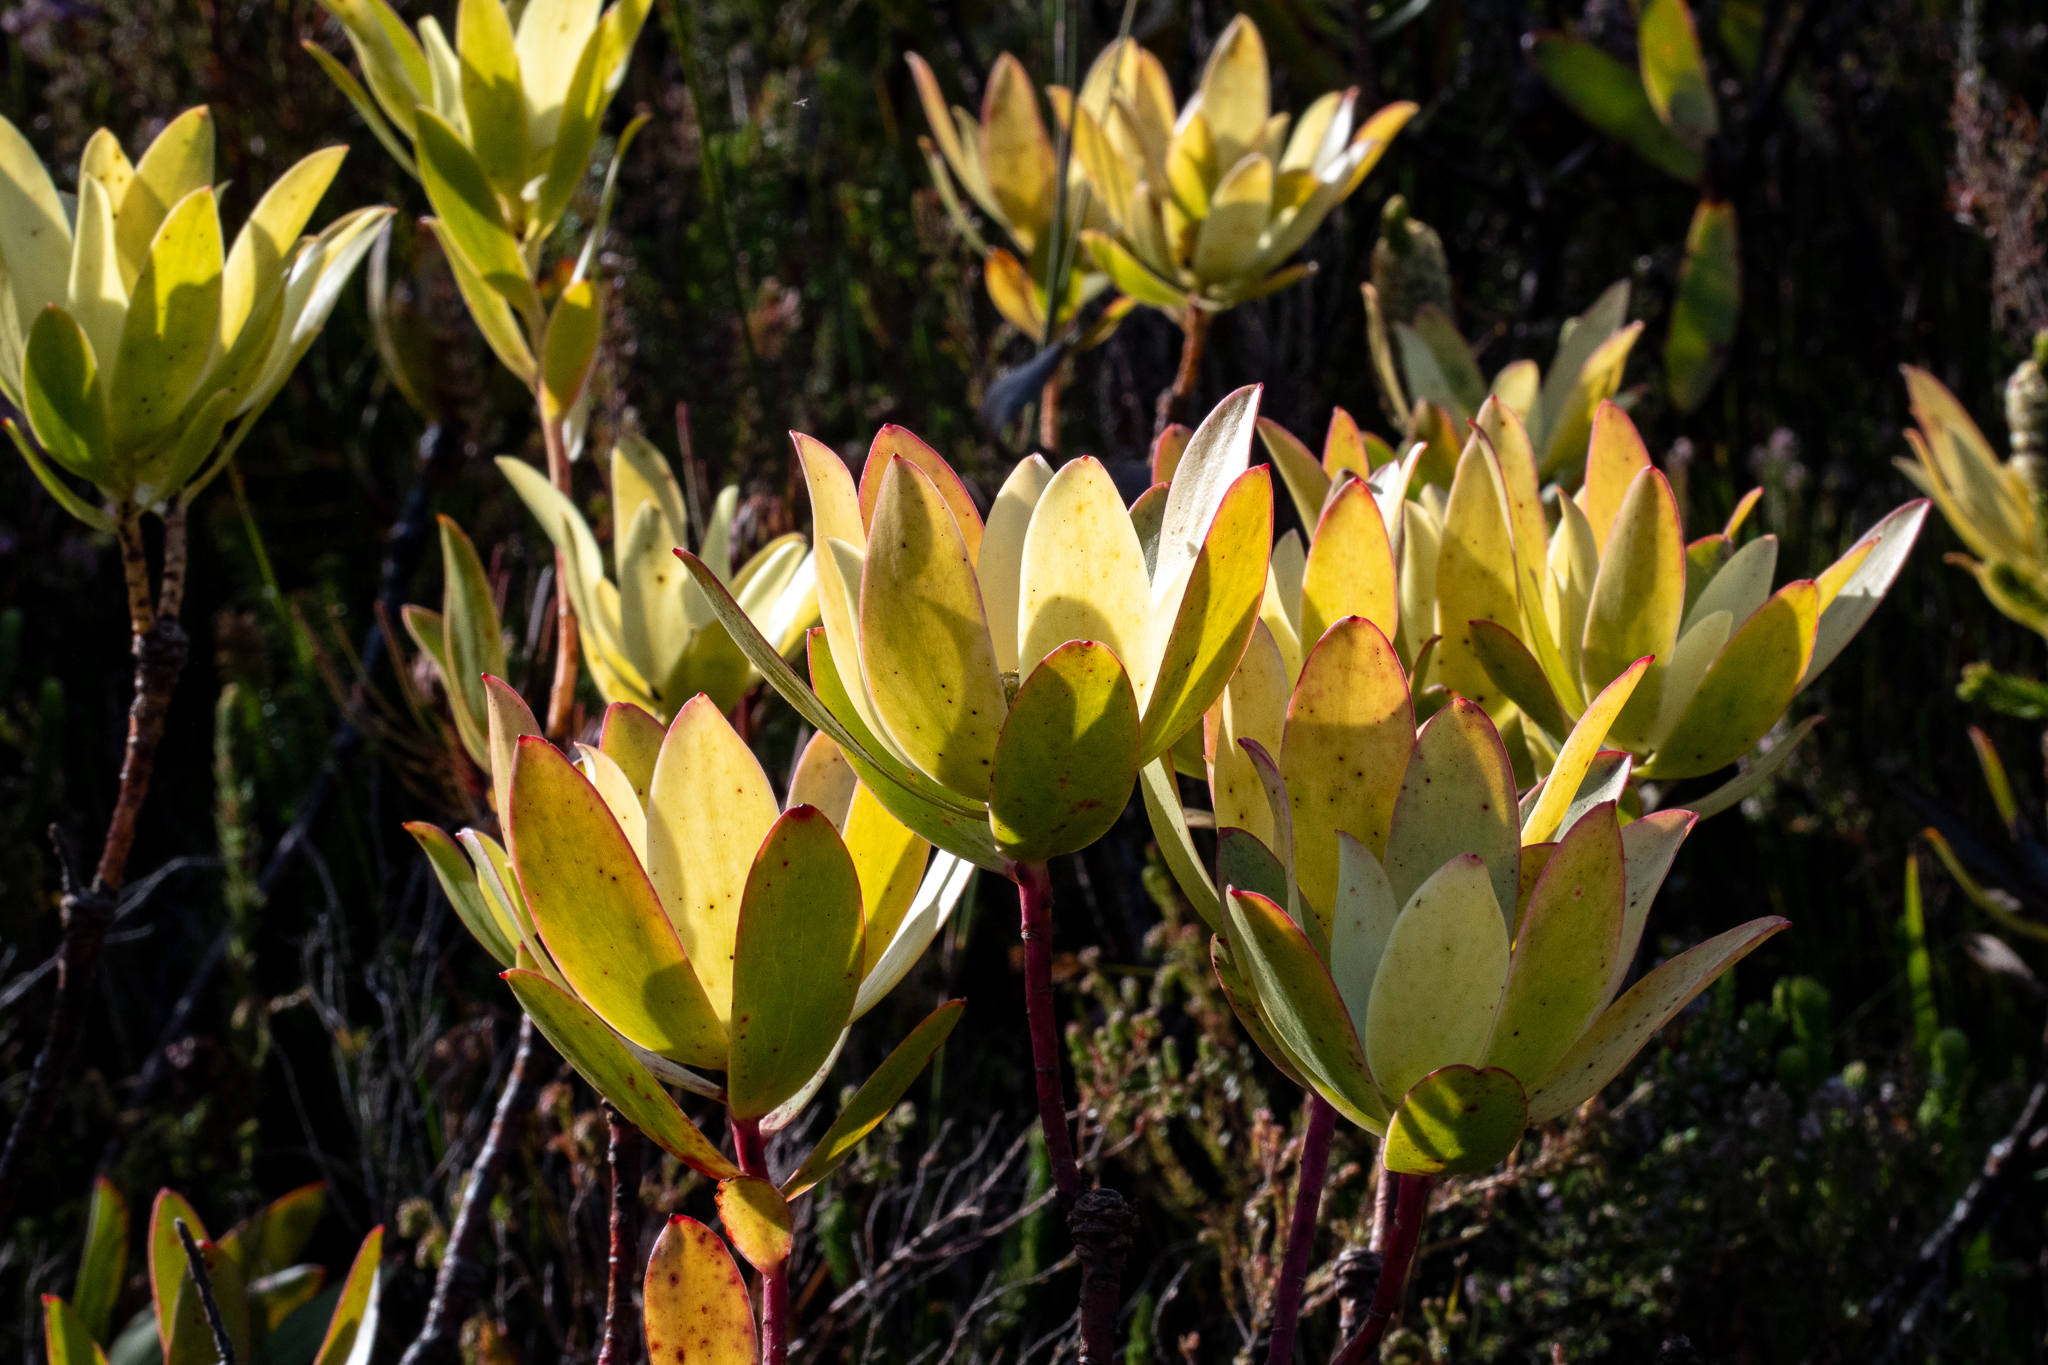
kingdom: Plantae
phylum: Tracheophyta
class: Magnoliopsida
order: Proteales
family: Proteaceae
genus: Leucadendron
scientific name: Leucadendron gandogeri
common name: Broad-leaf conebush
